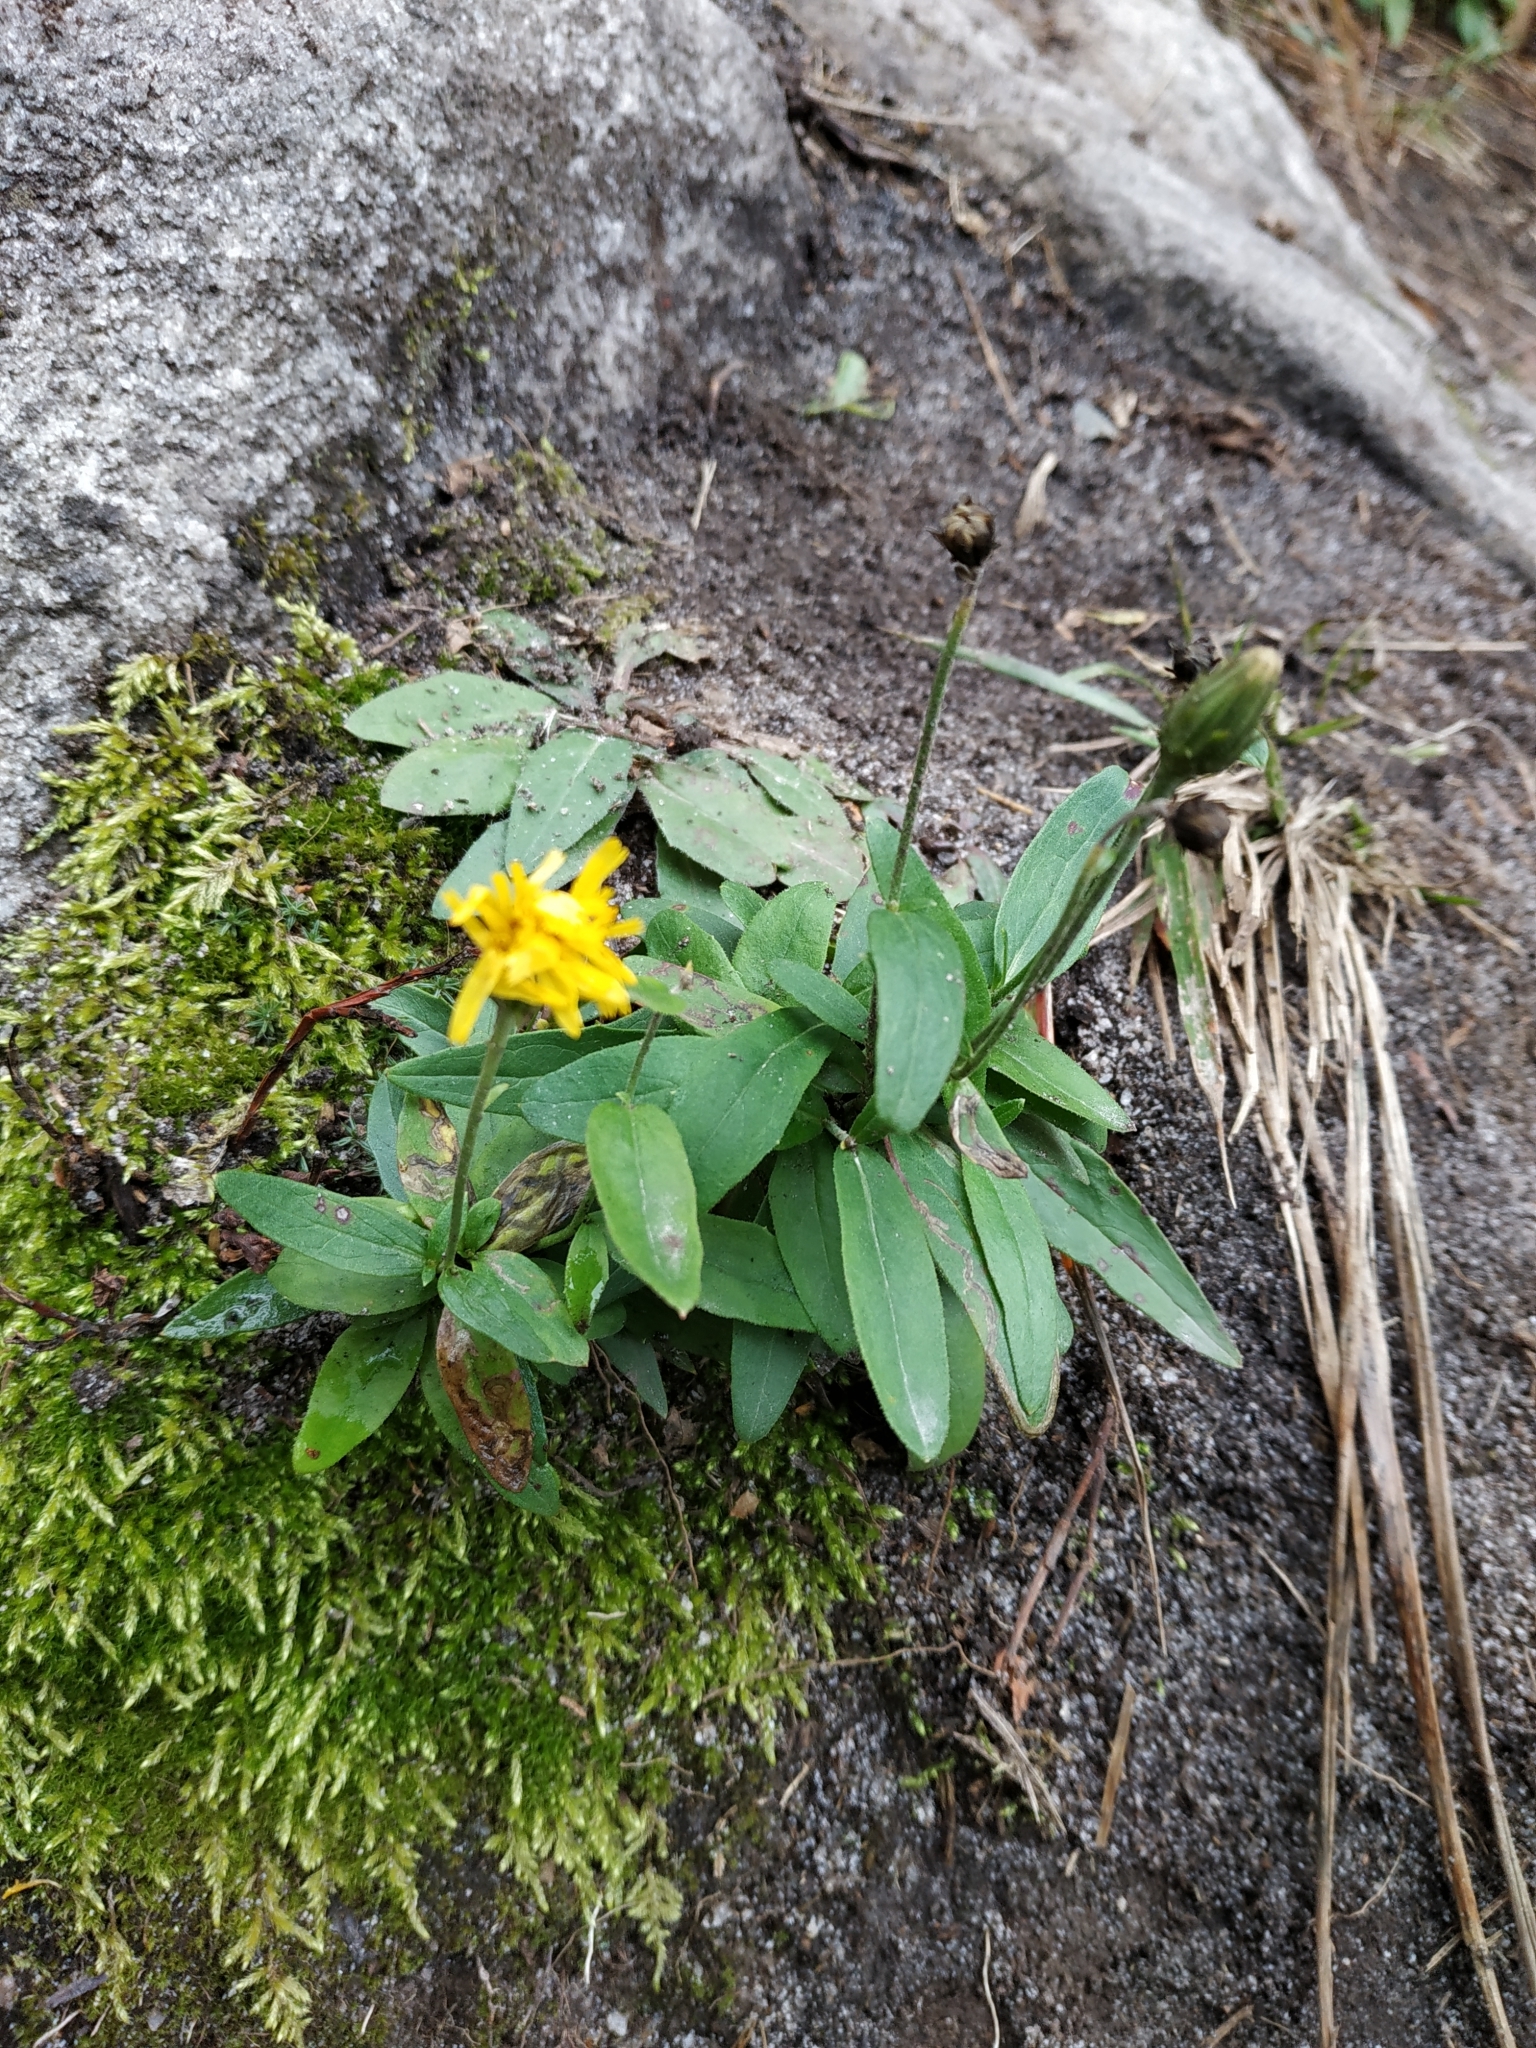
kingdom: Plantae
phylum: Tracheophyta
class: Magnoliopsida
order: Asterales
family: Asteraceae
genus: Hieracium
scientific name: Hieracium umbellatum
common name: Northern hawkweed
